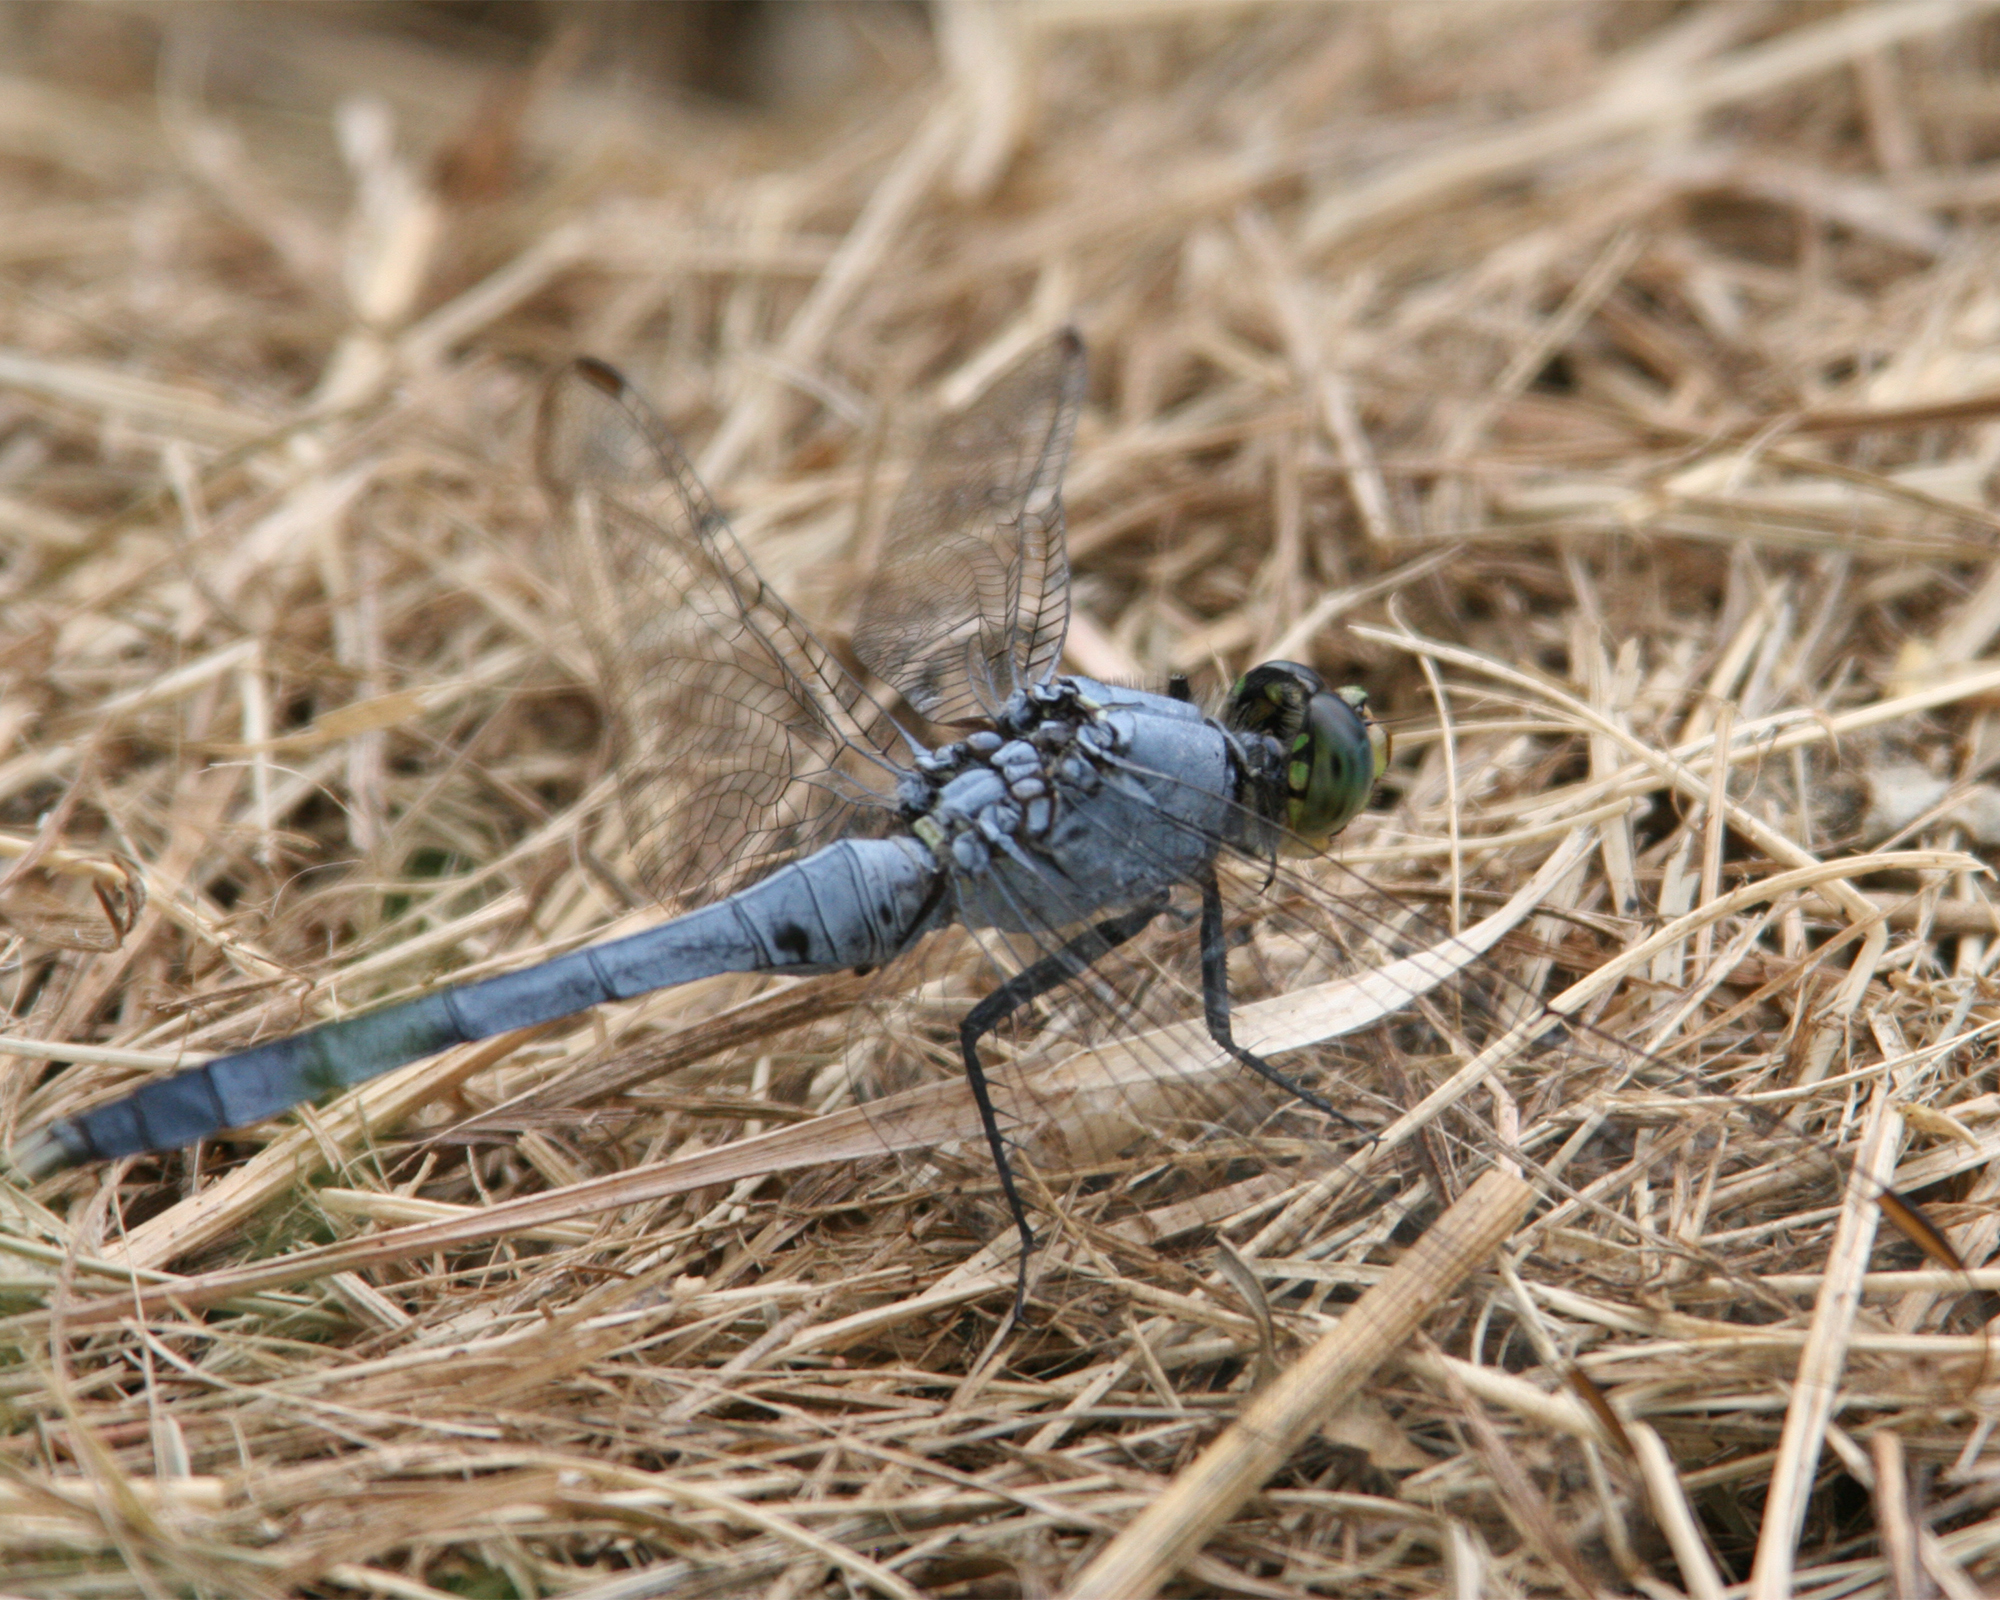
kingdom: Animalia
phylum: Arthropoda
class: Insecta
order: Odonata
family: Libellulidae
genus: Erythemis
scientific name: Erythemis simplicicollis
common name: Eastern pondhawk
